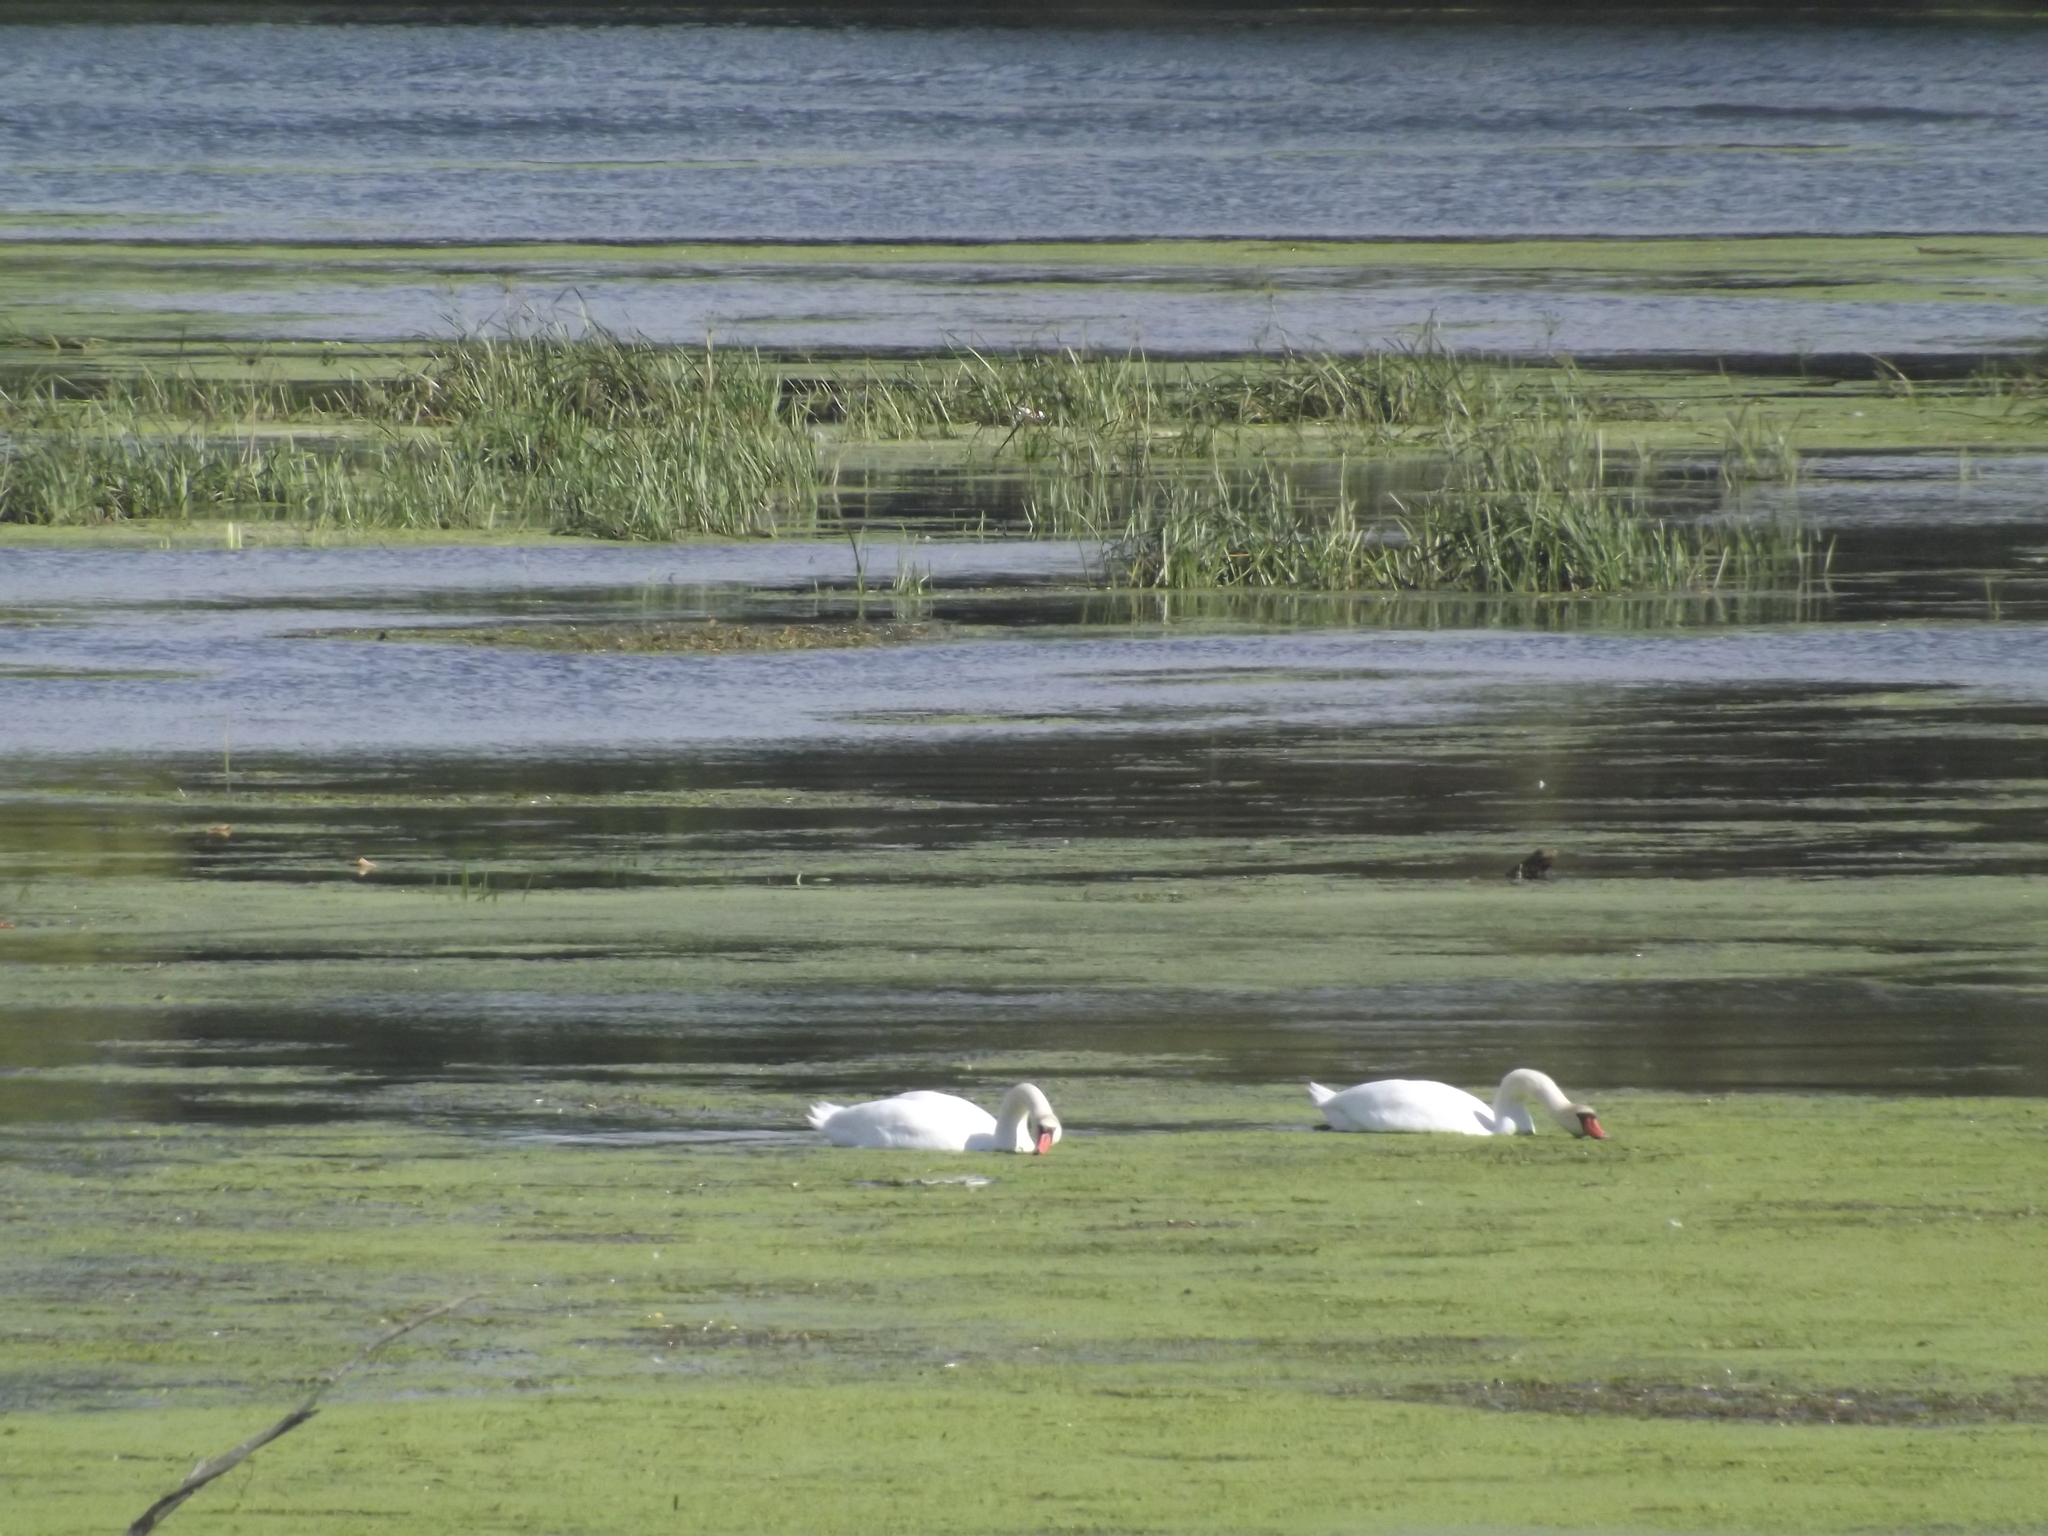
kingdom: Animalia
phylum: Chordata
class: Aves
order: Anseriformes
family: Anatidae
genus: Cygnus
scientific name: Cygnus olor
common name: Mute swan
